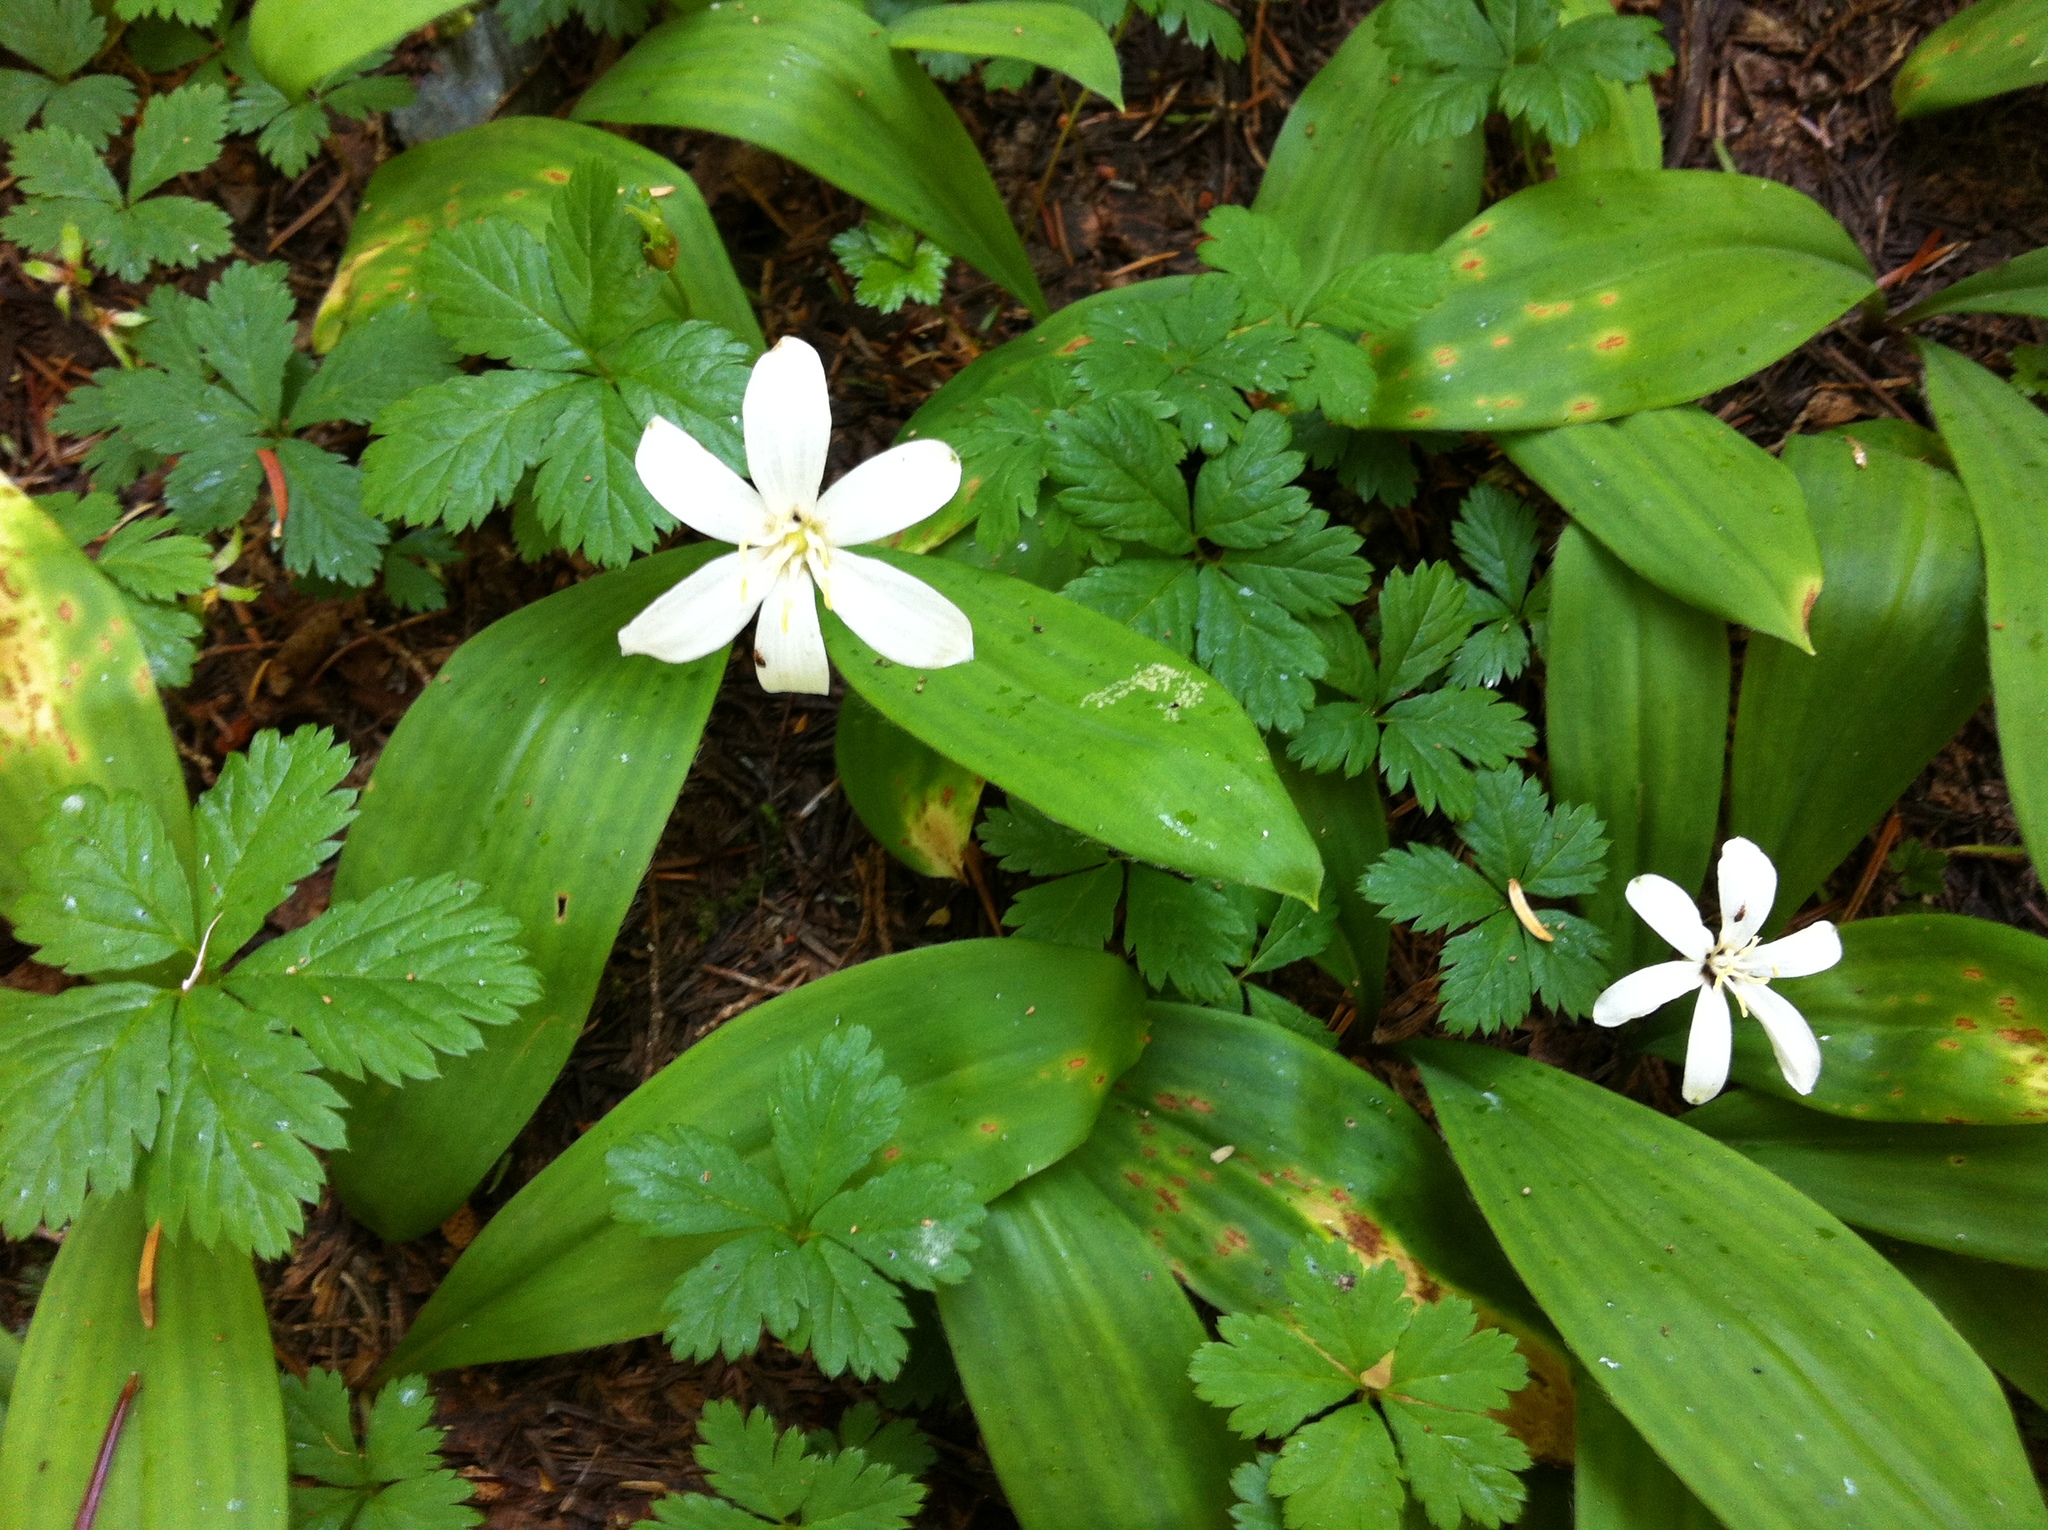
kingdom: Plantae
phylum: Tracheophyta
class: Liliopsida
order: Liliales
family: Liliaceae
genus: Clintonia
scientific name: Clintonia uniflora
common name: Queen's cup
